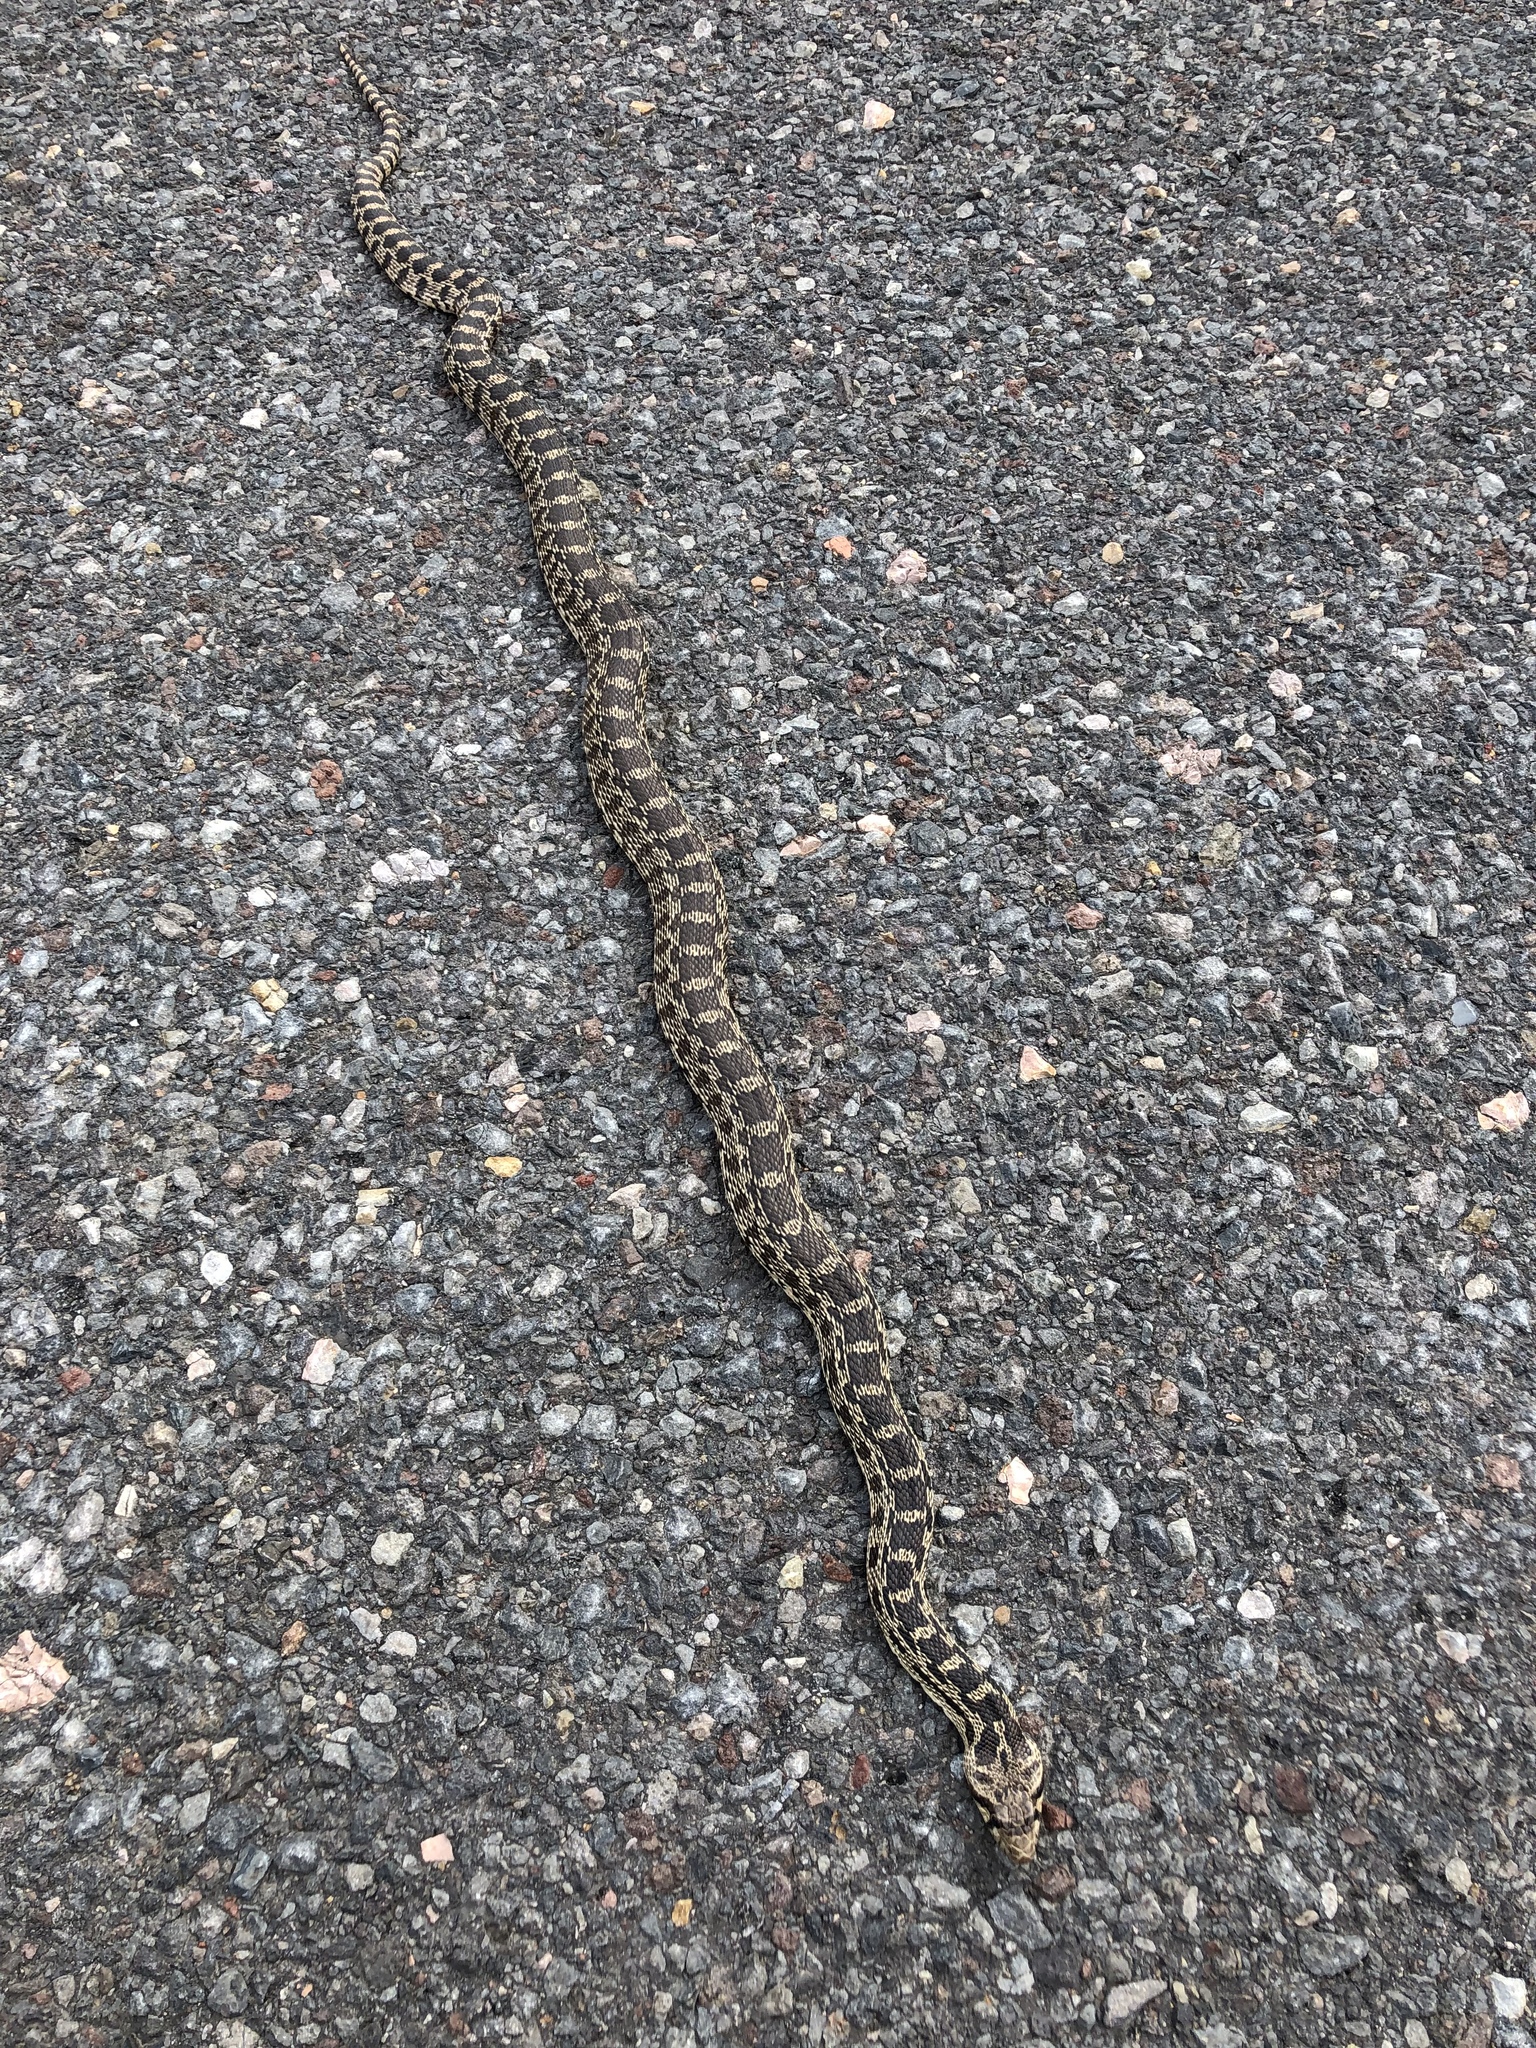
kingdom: Animalia
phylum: Chordata
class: Squamata
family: Colubridae
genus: Pituophis
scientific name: Pituophis catenifer
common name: Gopher snake
